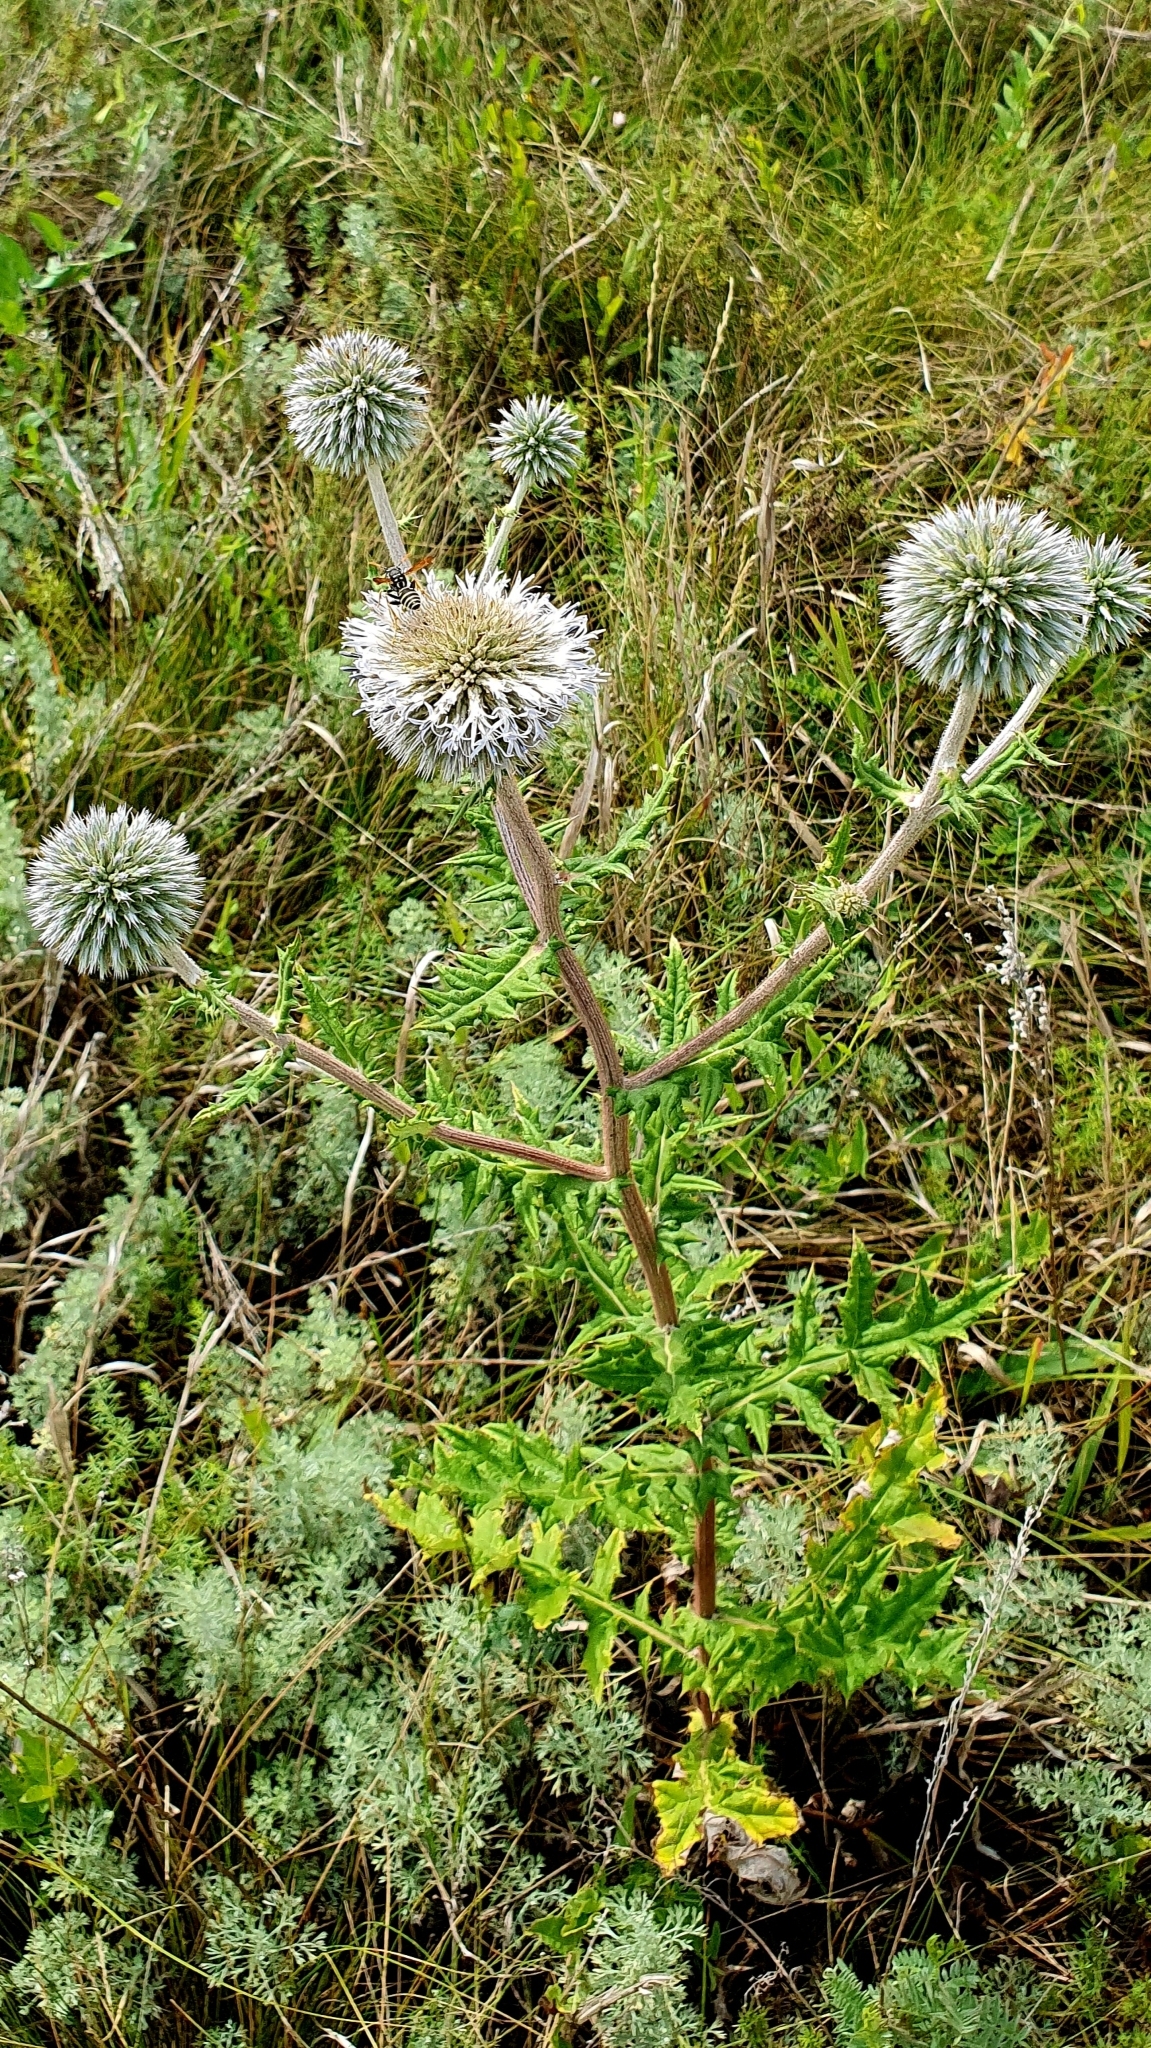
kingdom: Plantae
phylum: Tracheophyta
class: Magnoliopsida
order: Asterales
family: Asteraceae
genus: Echinops
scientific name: Echinops sphaerocephalus
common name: Glandular globe-thistle
